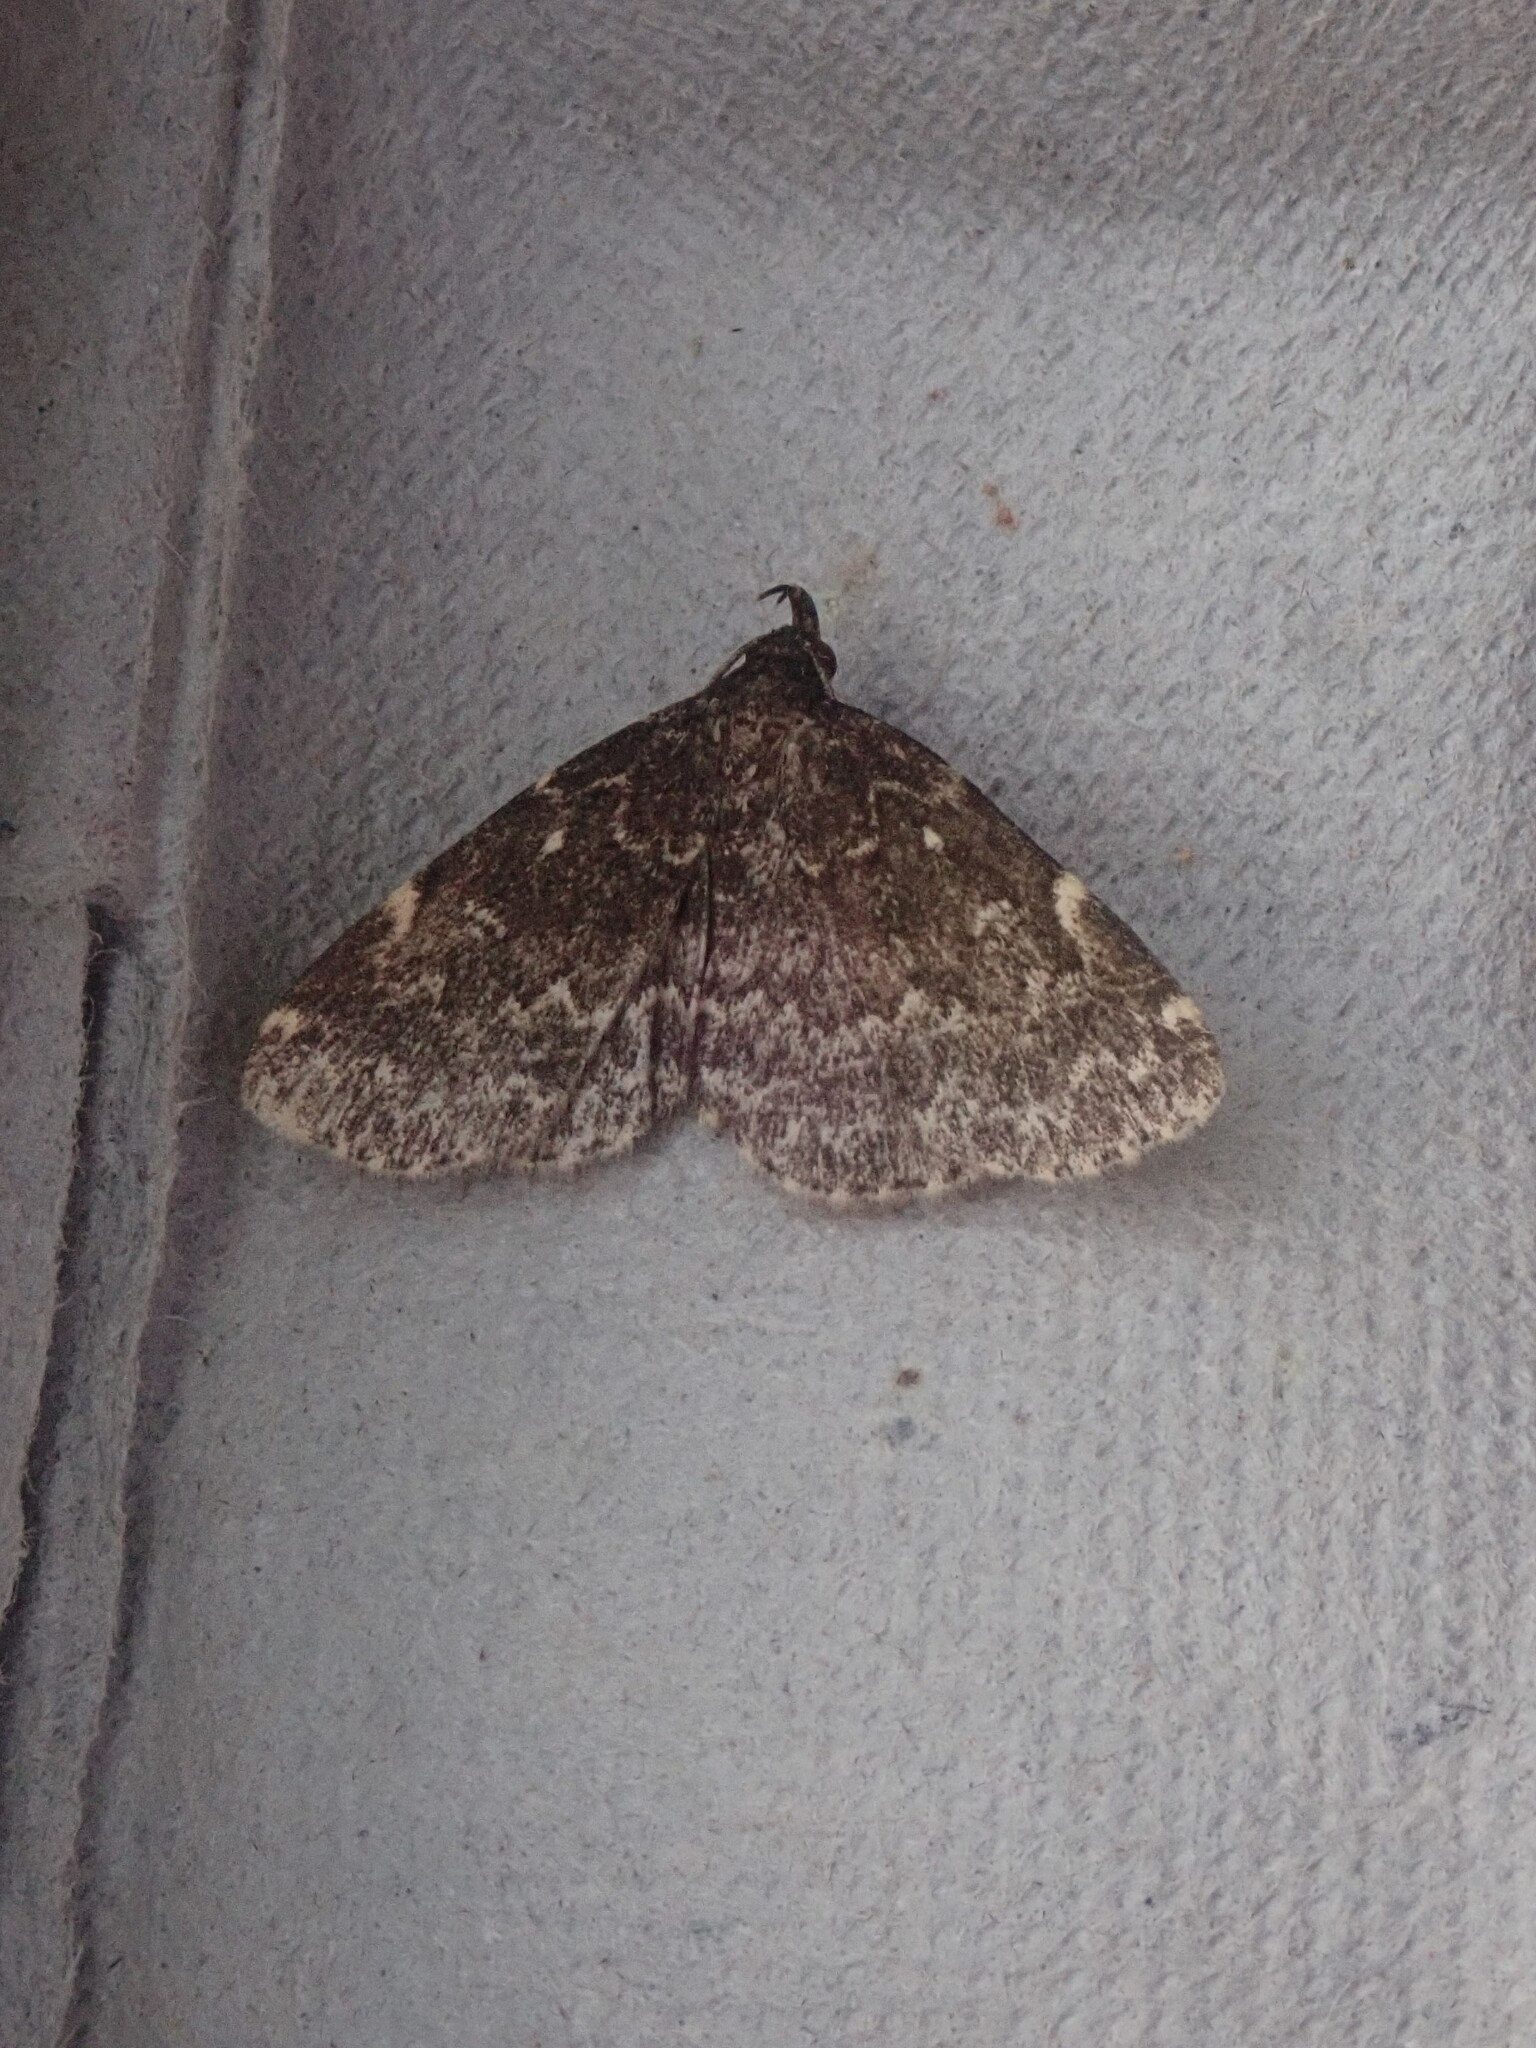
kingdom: Animalia
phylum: Arthropoda
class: Insecta
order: Lepidoptera
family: Erebidae
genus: Idia
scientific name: Idia scobialis
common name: Smoky idia moth
